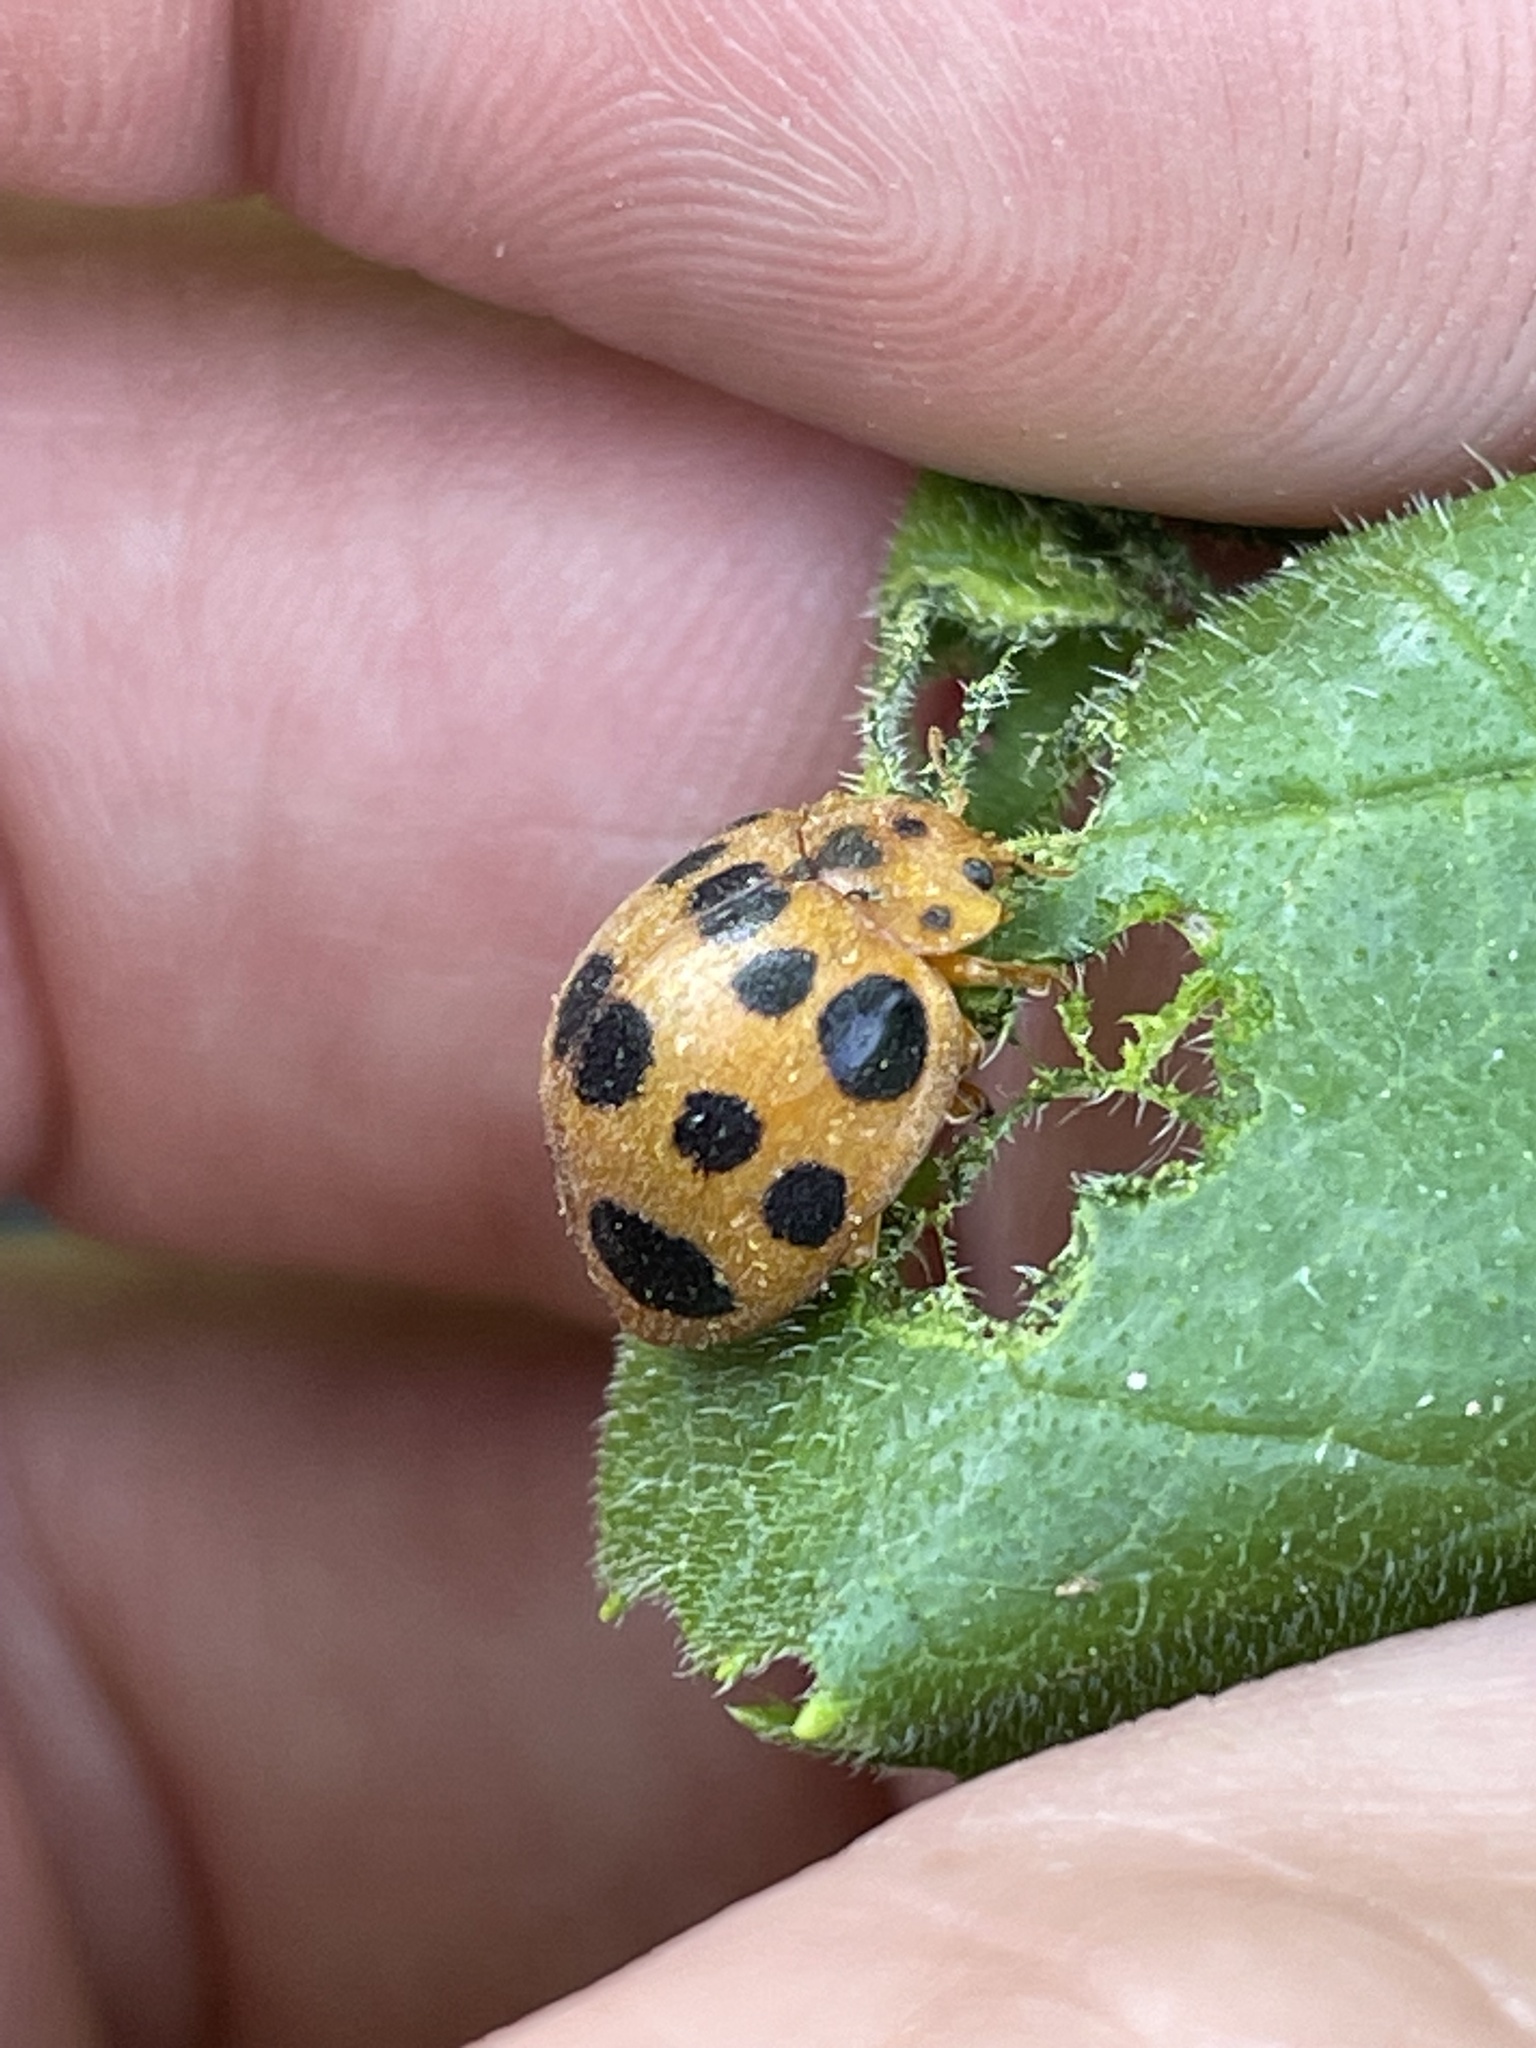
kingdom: Animalia
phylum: Arthropoda
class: Insecta
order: Coleoptera
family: Coccinellidae
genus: Epilachna
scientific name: Epilachna borealis
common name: Squash beetle
